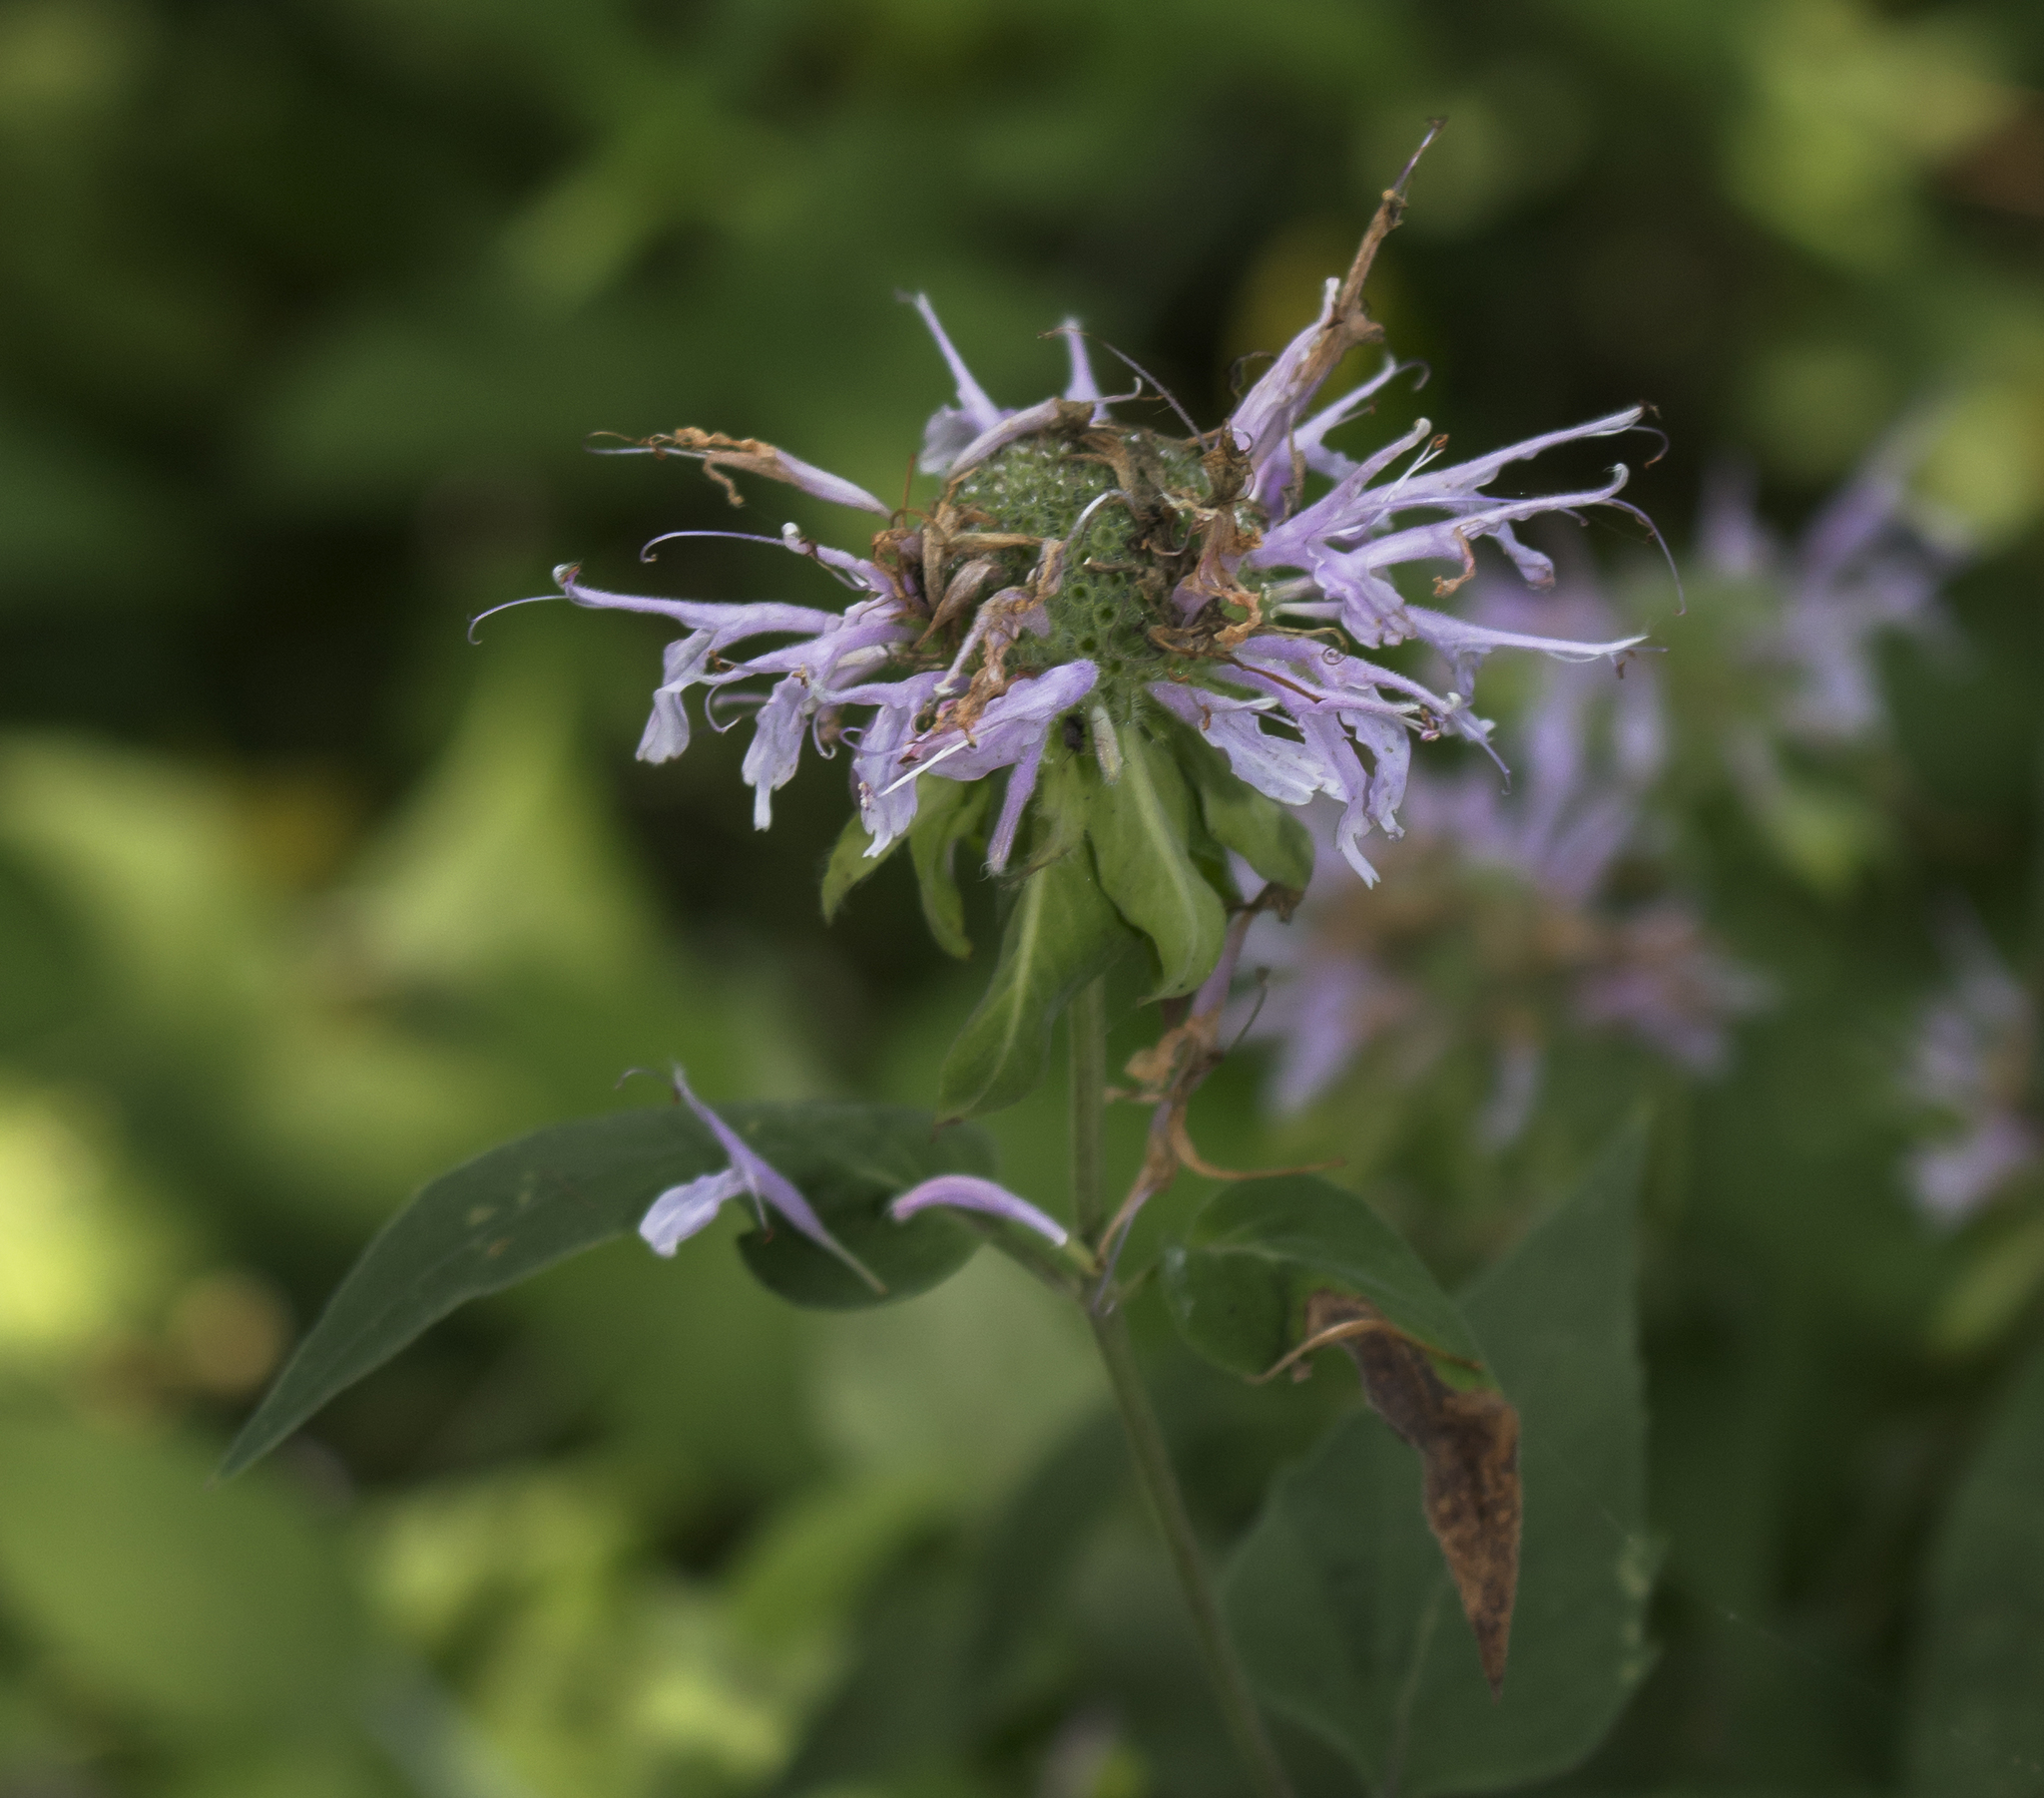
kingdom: Plantae
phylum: Tracheophyta
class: Magnoliopsida
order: Lamiales
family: Lamiaceae
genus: Monarda
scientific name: Monarda fistulosa
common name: Purple beebalm
